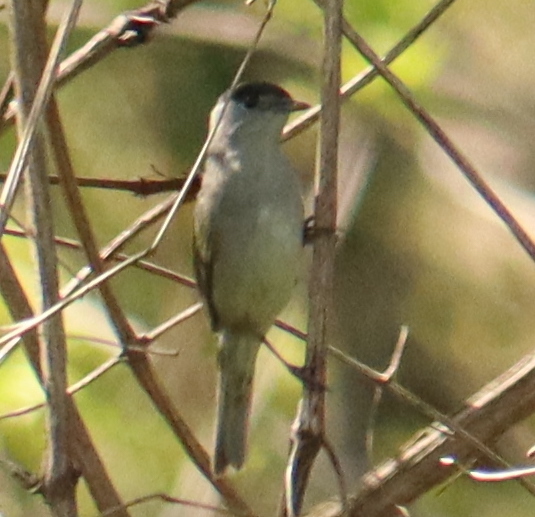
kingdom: Animalia
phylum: Chordata
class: Aves
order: Passeriformes
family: Sylviidae
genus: Sylvia
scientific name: Sylvia atricapilla
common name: Eurasian blackcap
